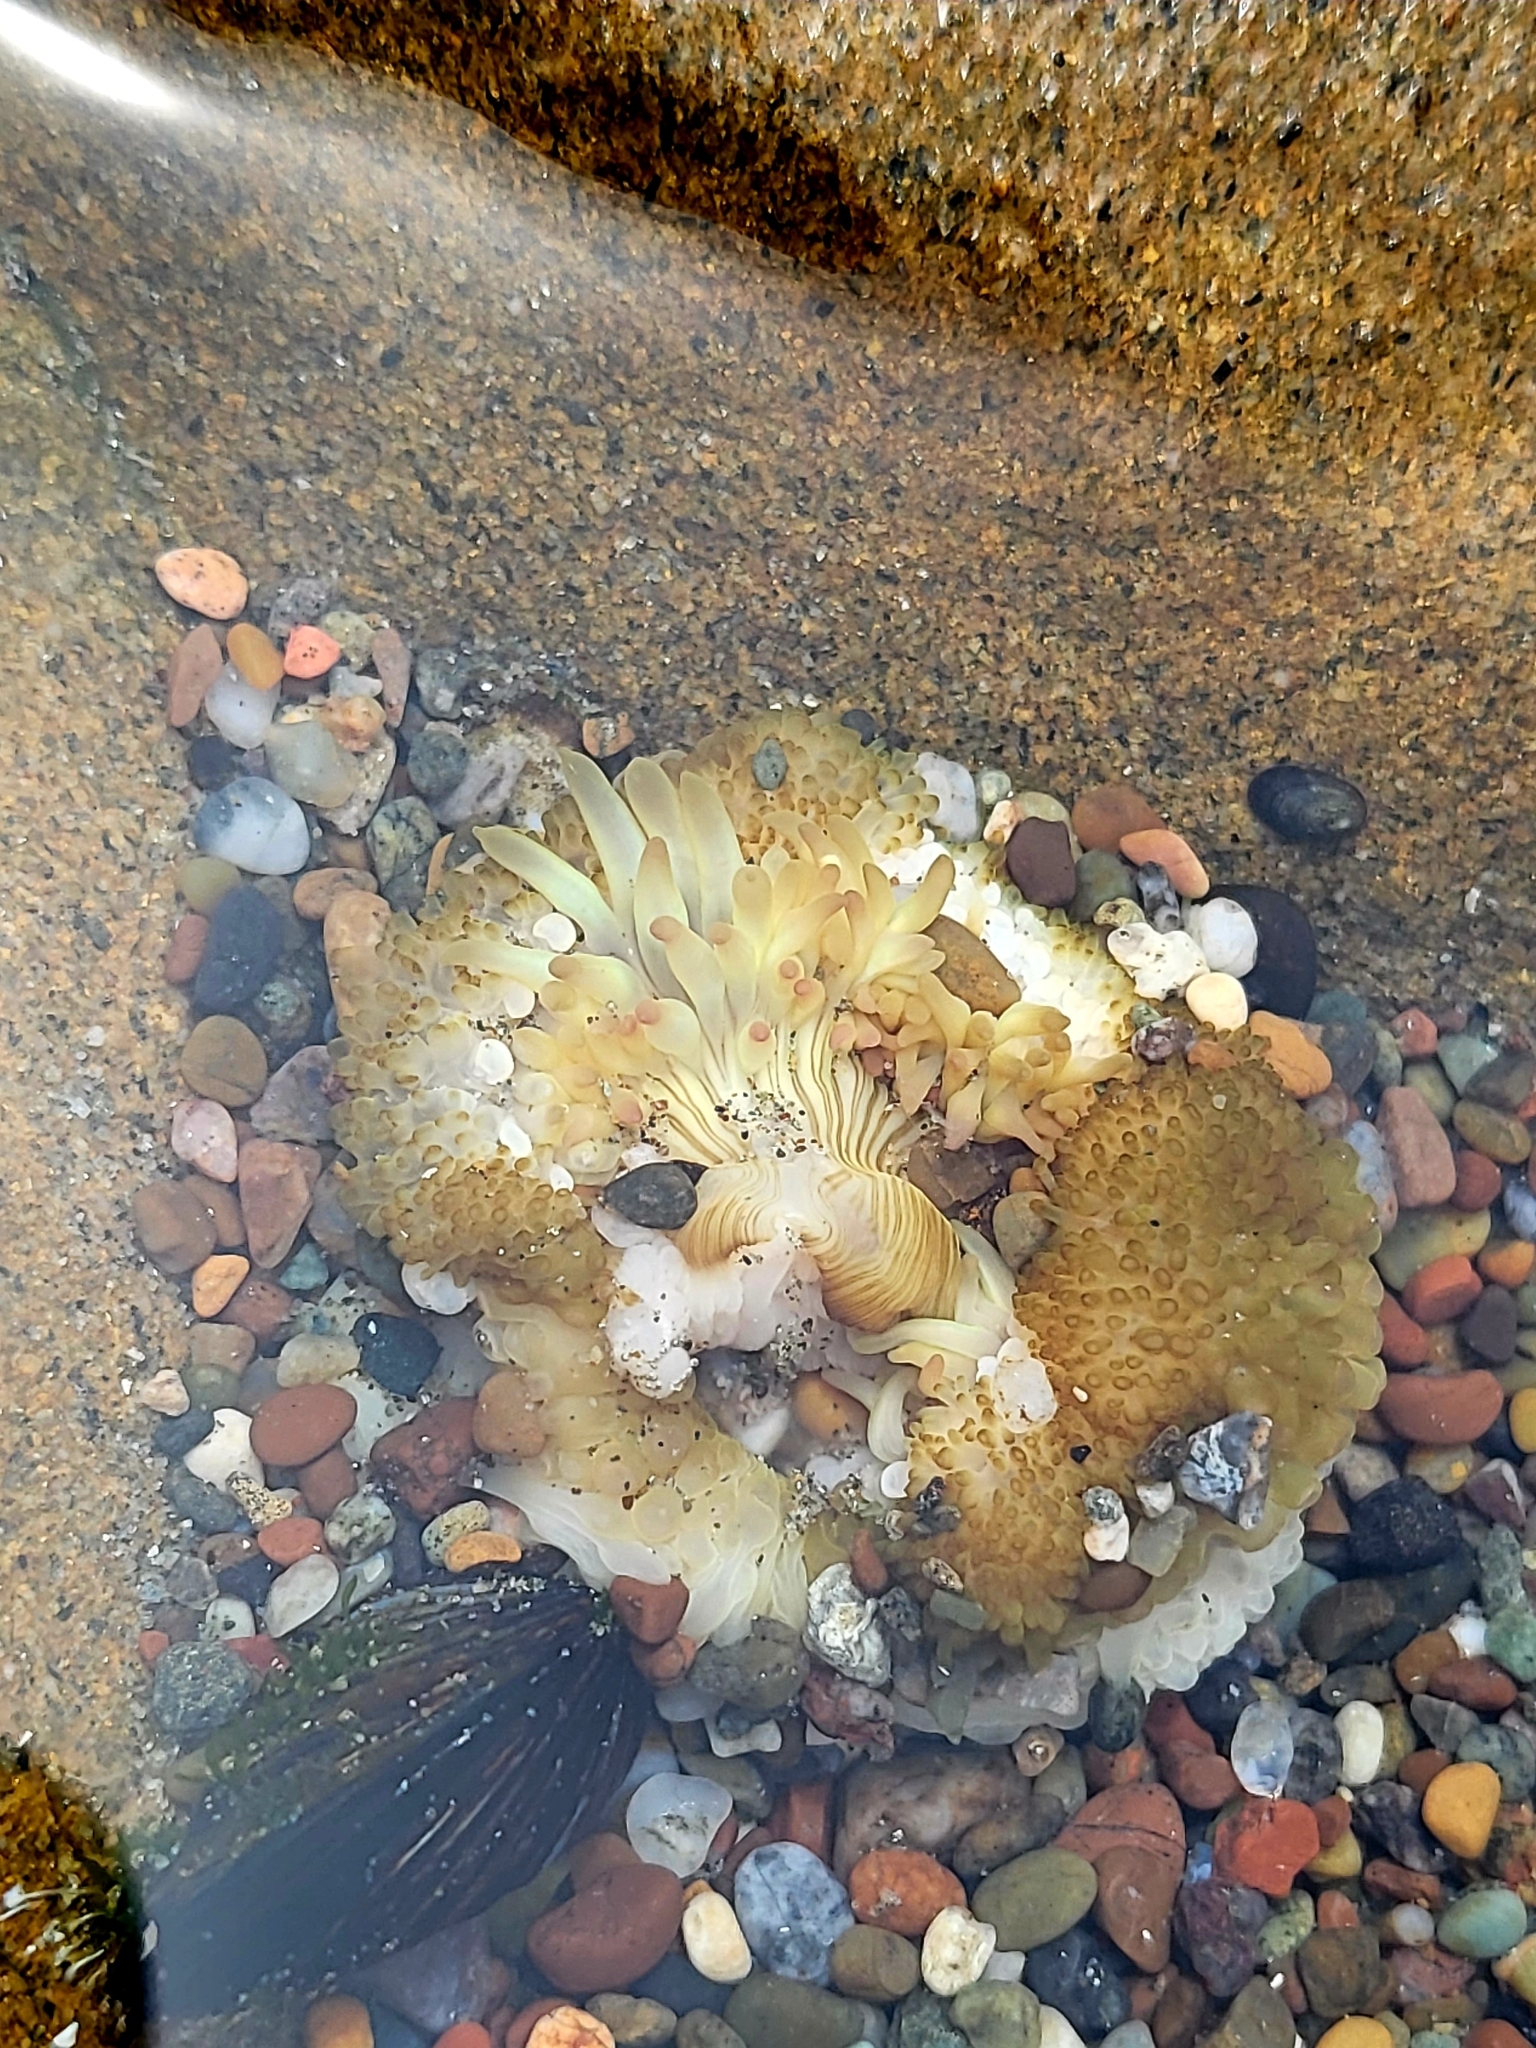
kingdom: Animalia
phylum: Cnidaria
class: Anthozoa
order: Actiniaria
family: Actiniidae
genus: Anthopleura
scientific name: Anthopleura sola
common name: Sun anemone
